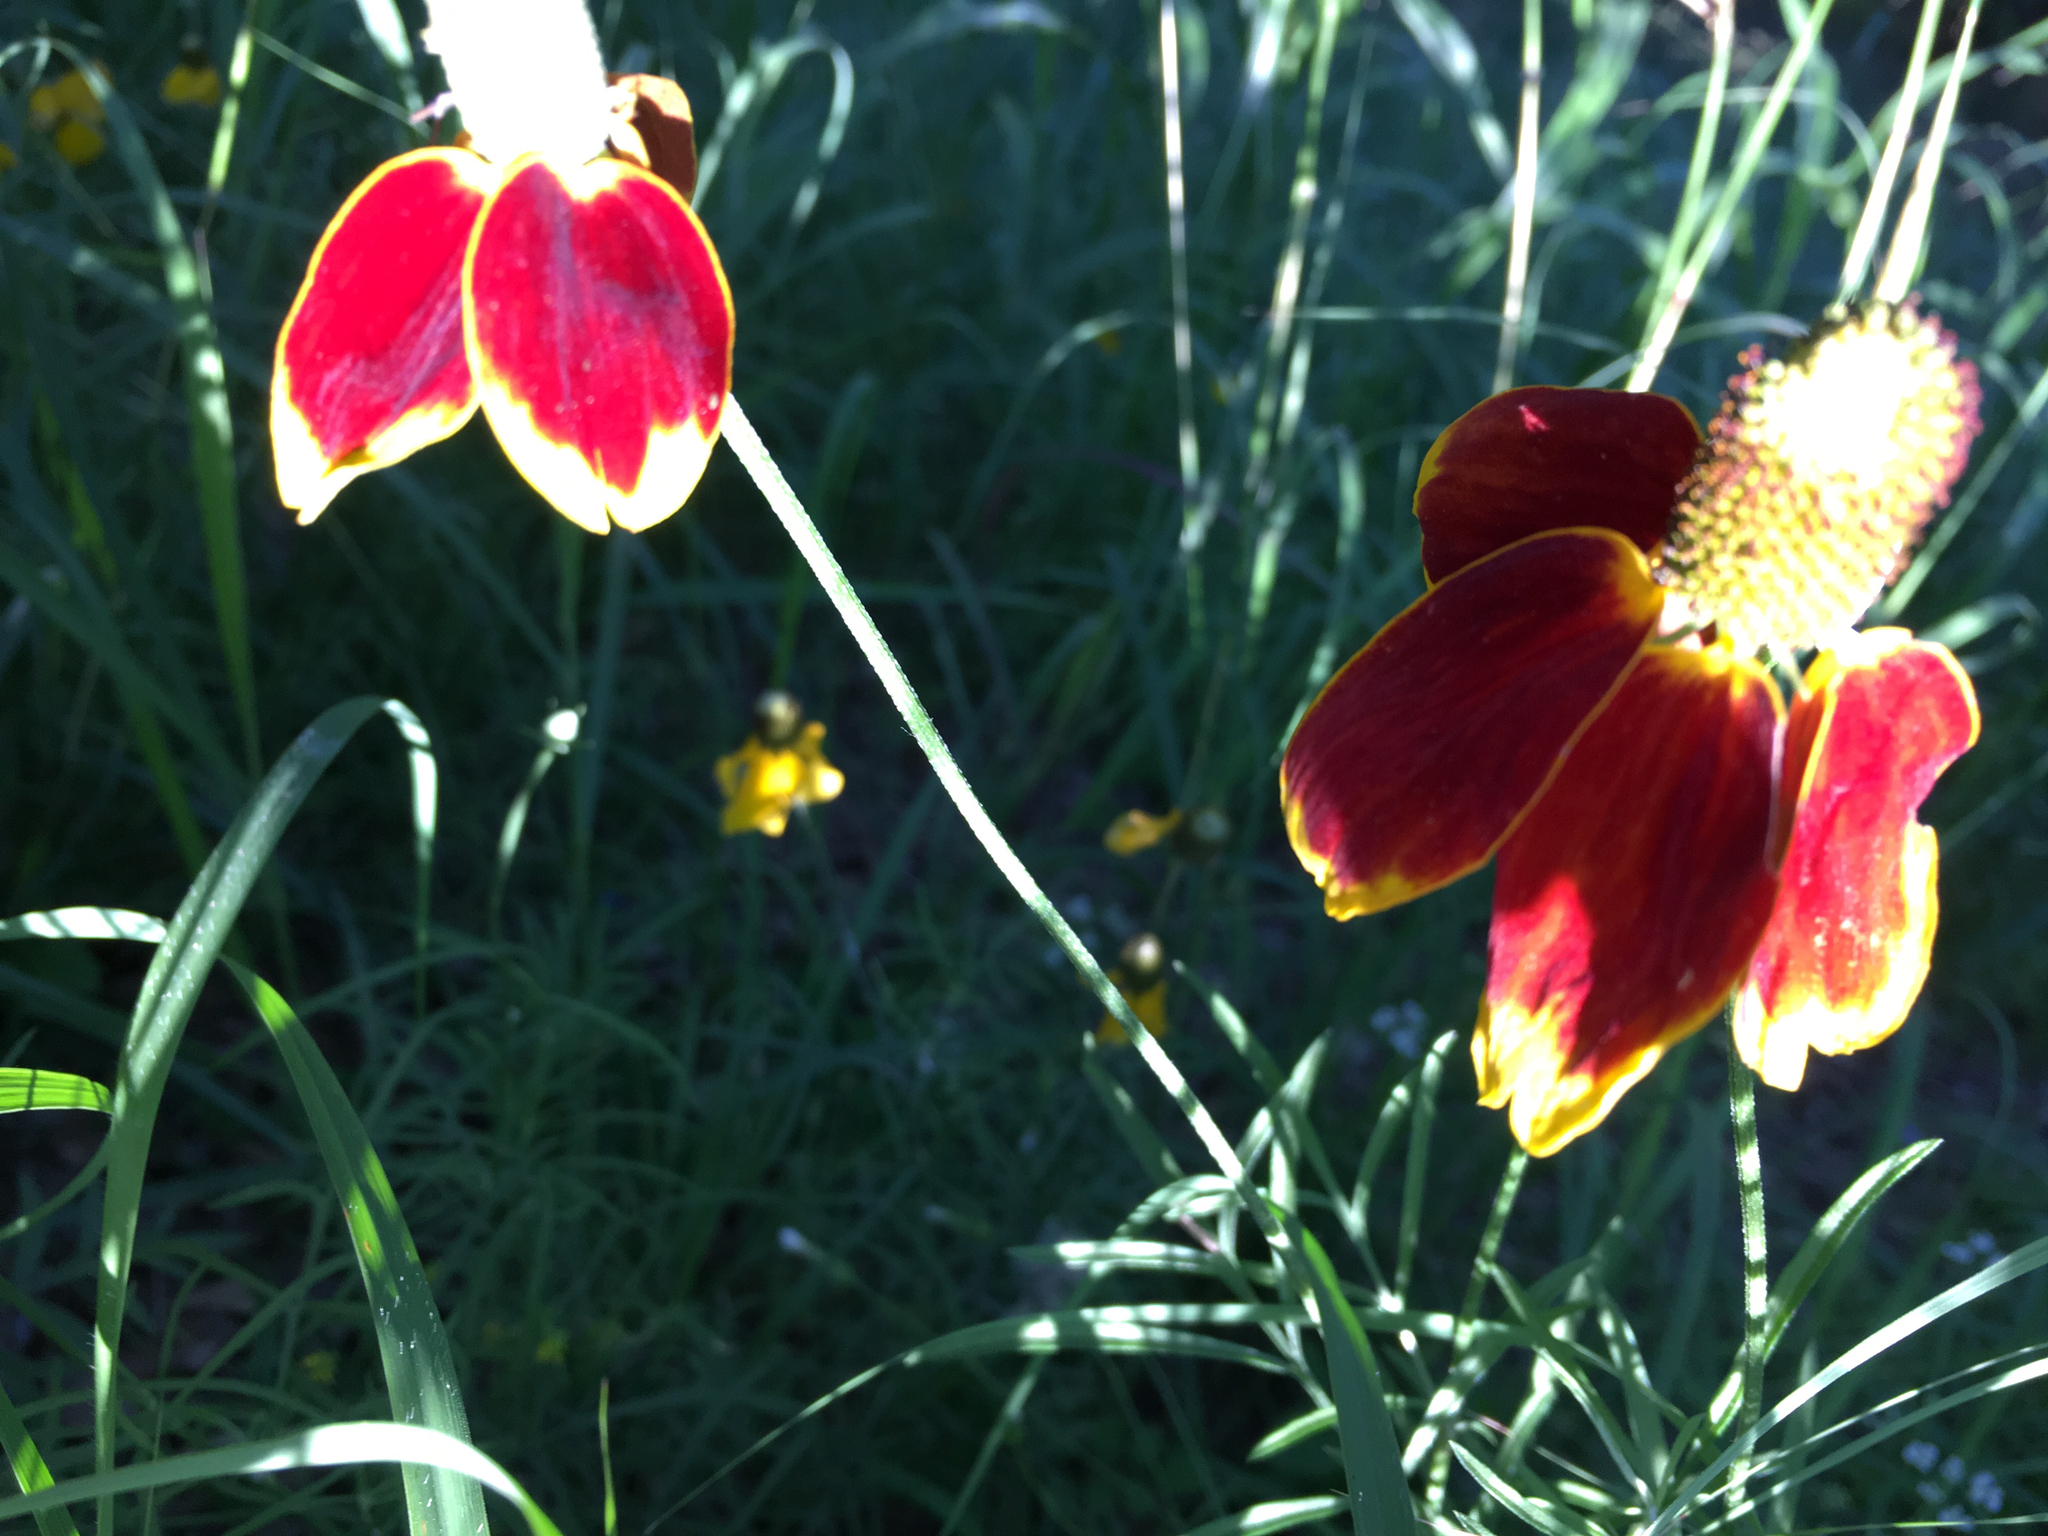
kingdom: Plantae
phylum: Tracheophyta
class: Magnoliopsida
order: Asterales
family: Asteraceae
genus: Ratibida
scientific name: Ratibida columnifera
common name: Prairie coneflower
